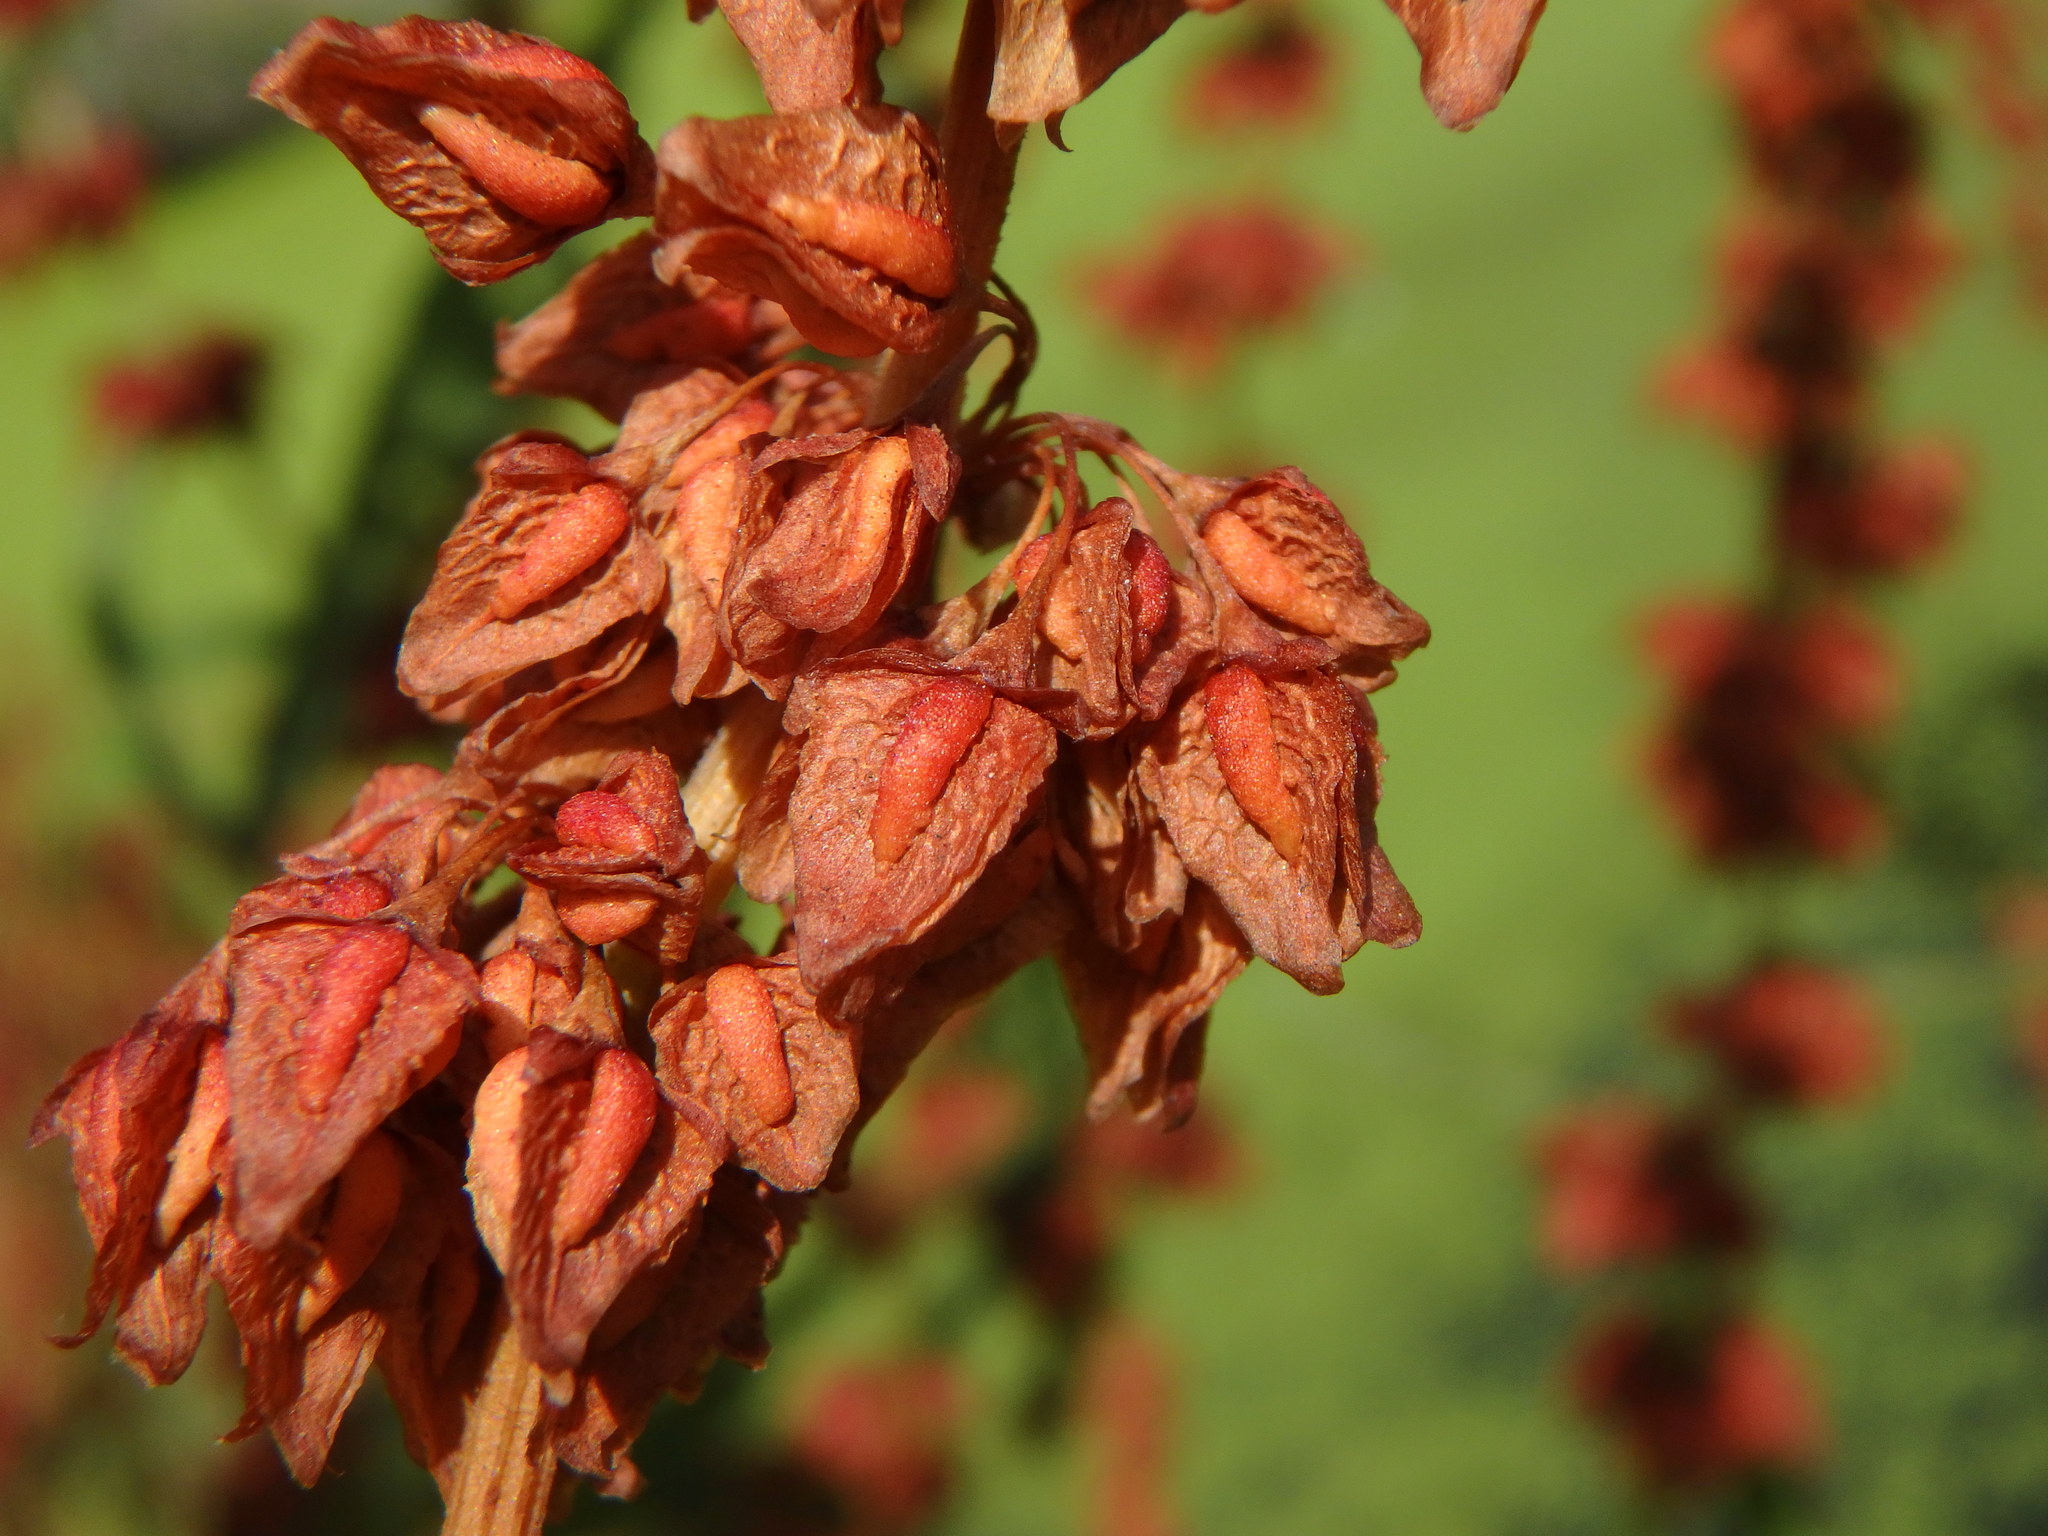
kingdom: Plantae
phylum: Tracheophyta
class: Magnoliopsida
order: Caryophyllales
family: Polygonaceae
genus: Rumex
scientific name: Rumex hydrolapathum
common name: Water dock
